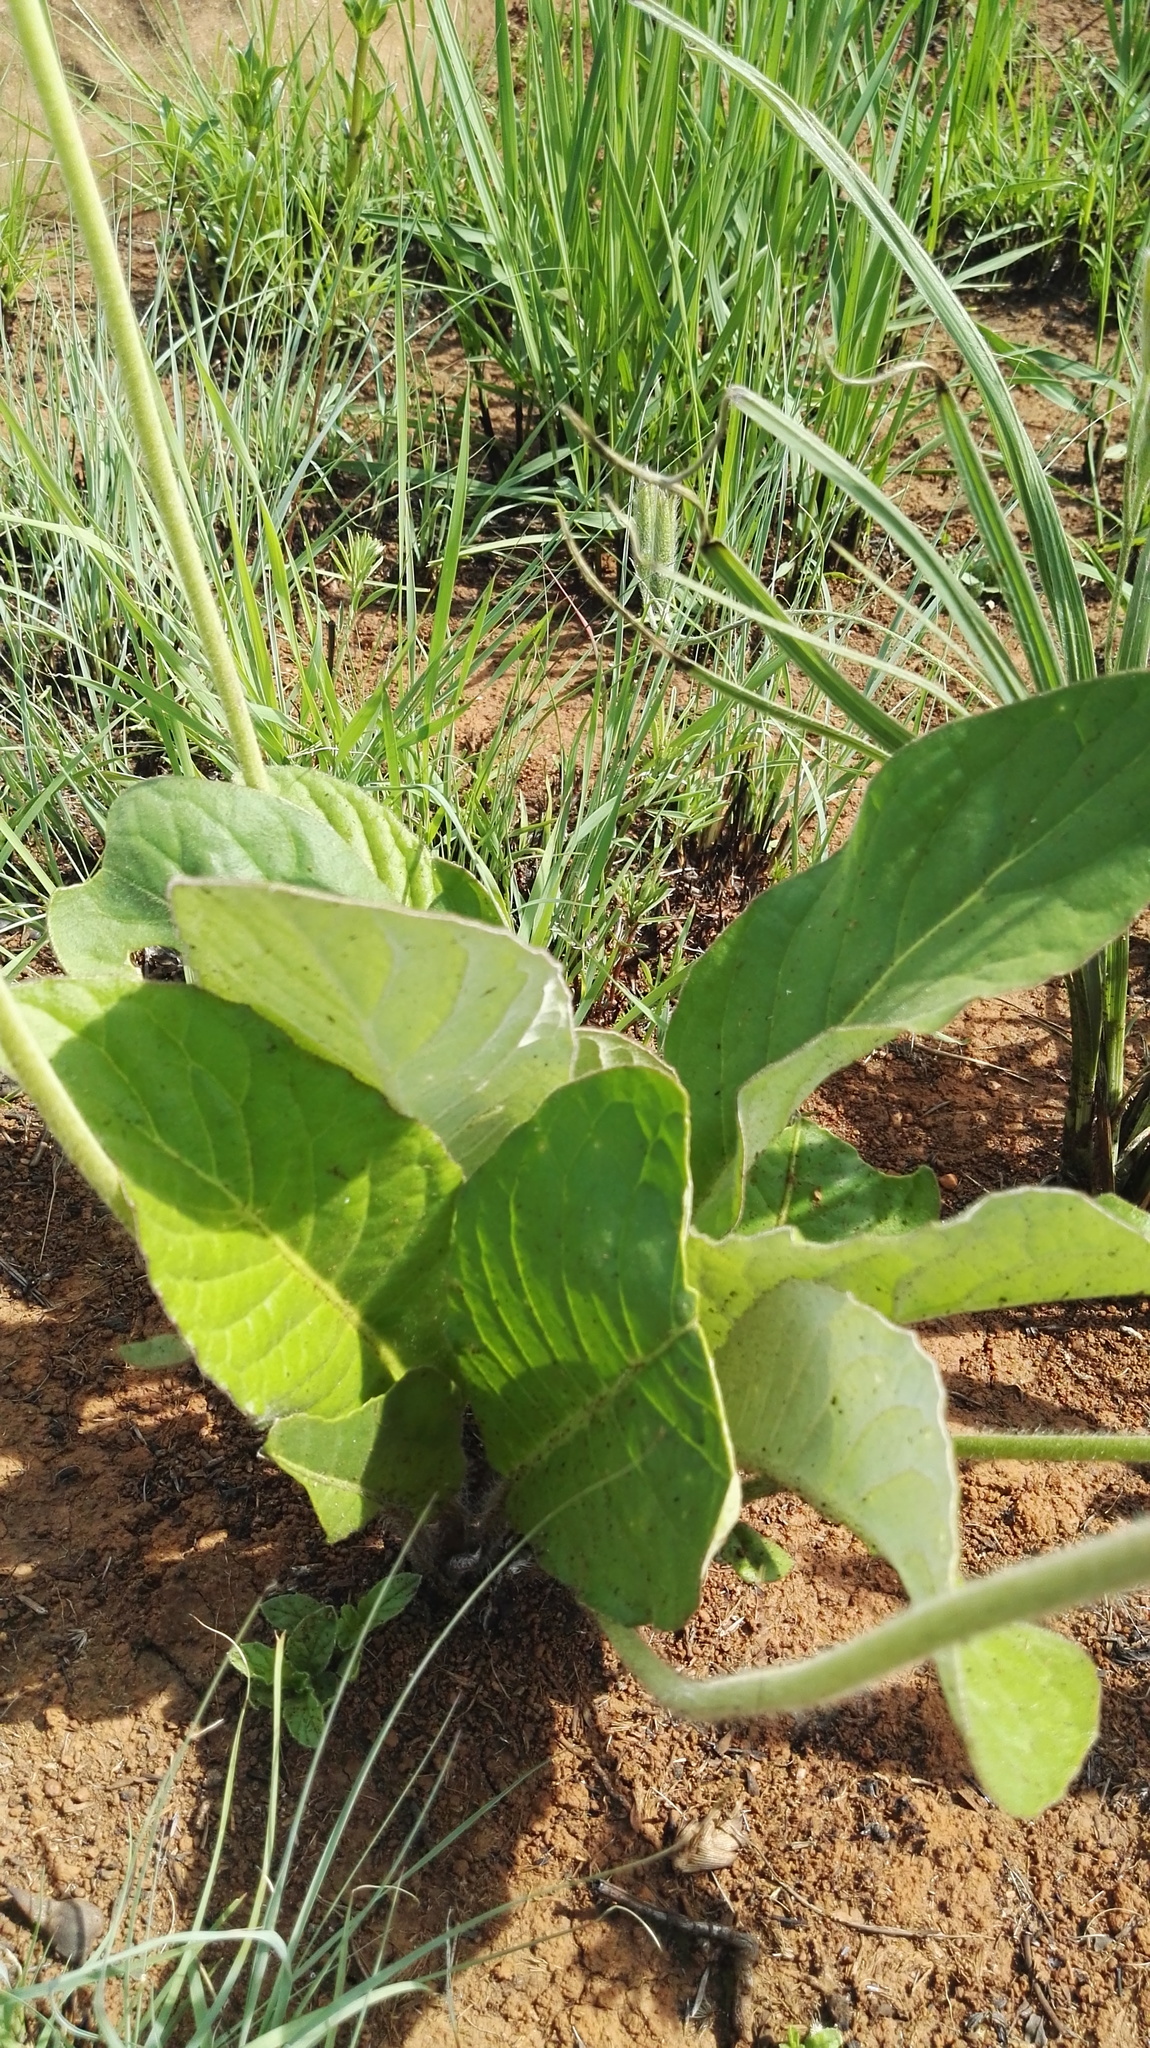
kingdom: Plantae
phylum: Tracheophyta
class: Magnoliopsida
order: Asterales
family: Asteraceae
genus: Gerbera
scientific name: Gerbera ambigua
